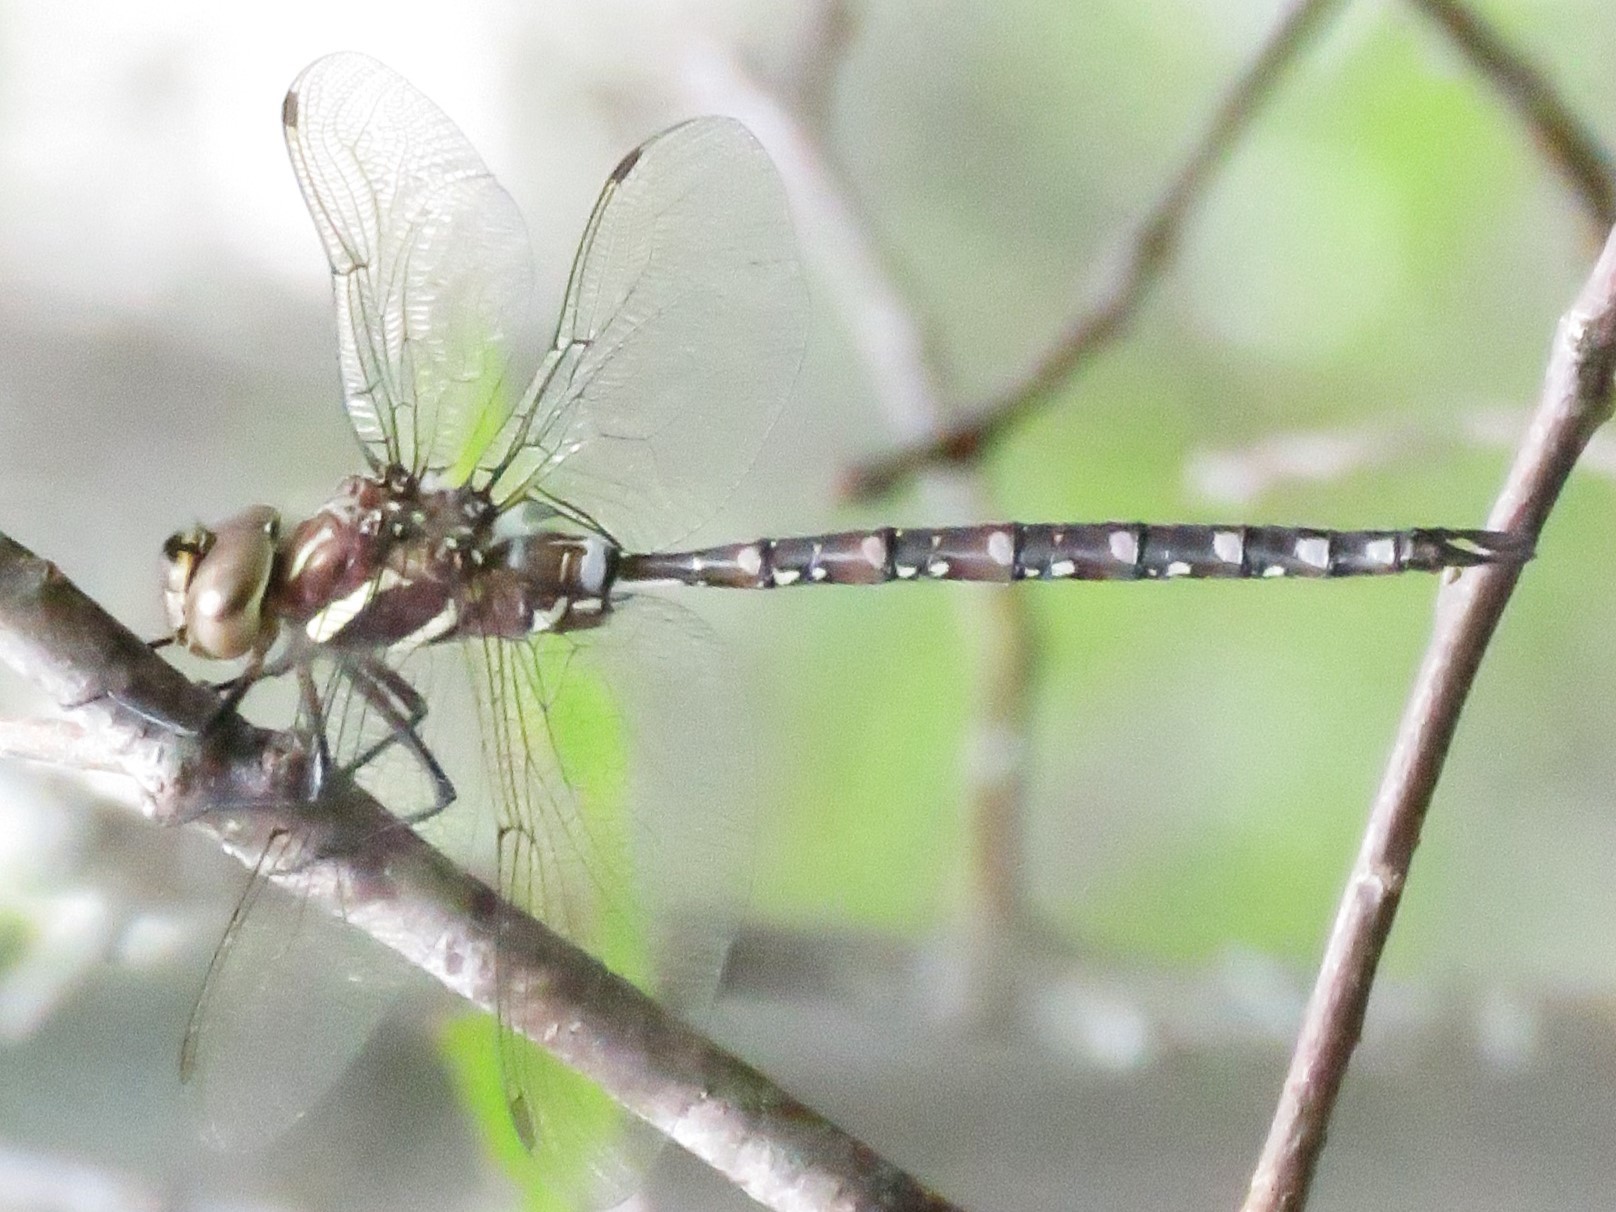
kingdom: Animalia
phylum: Arthropoda
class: Insecta
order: Odonata
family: Aeshnidae
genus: Aeshna
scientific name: Aeshna tuberculifera
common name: Aeschne à tubercules
